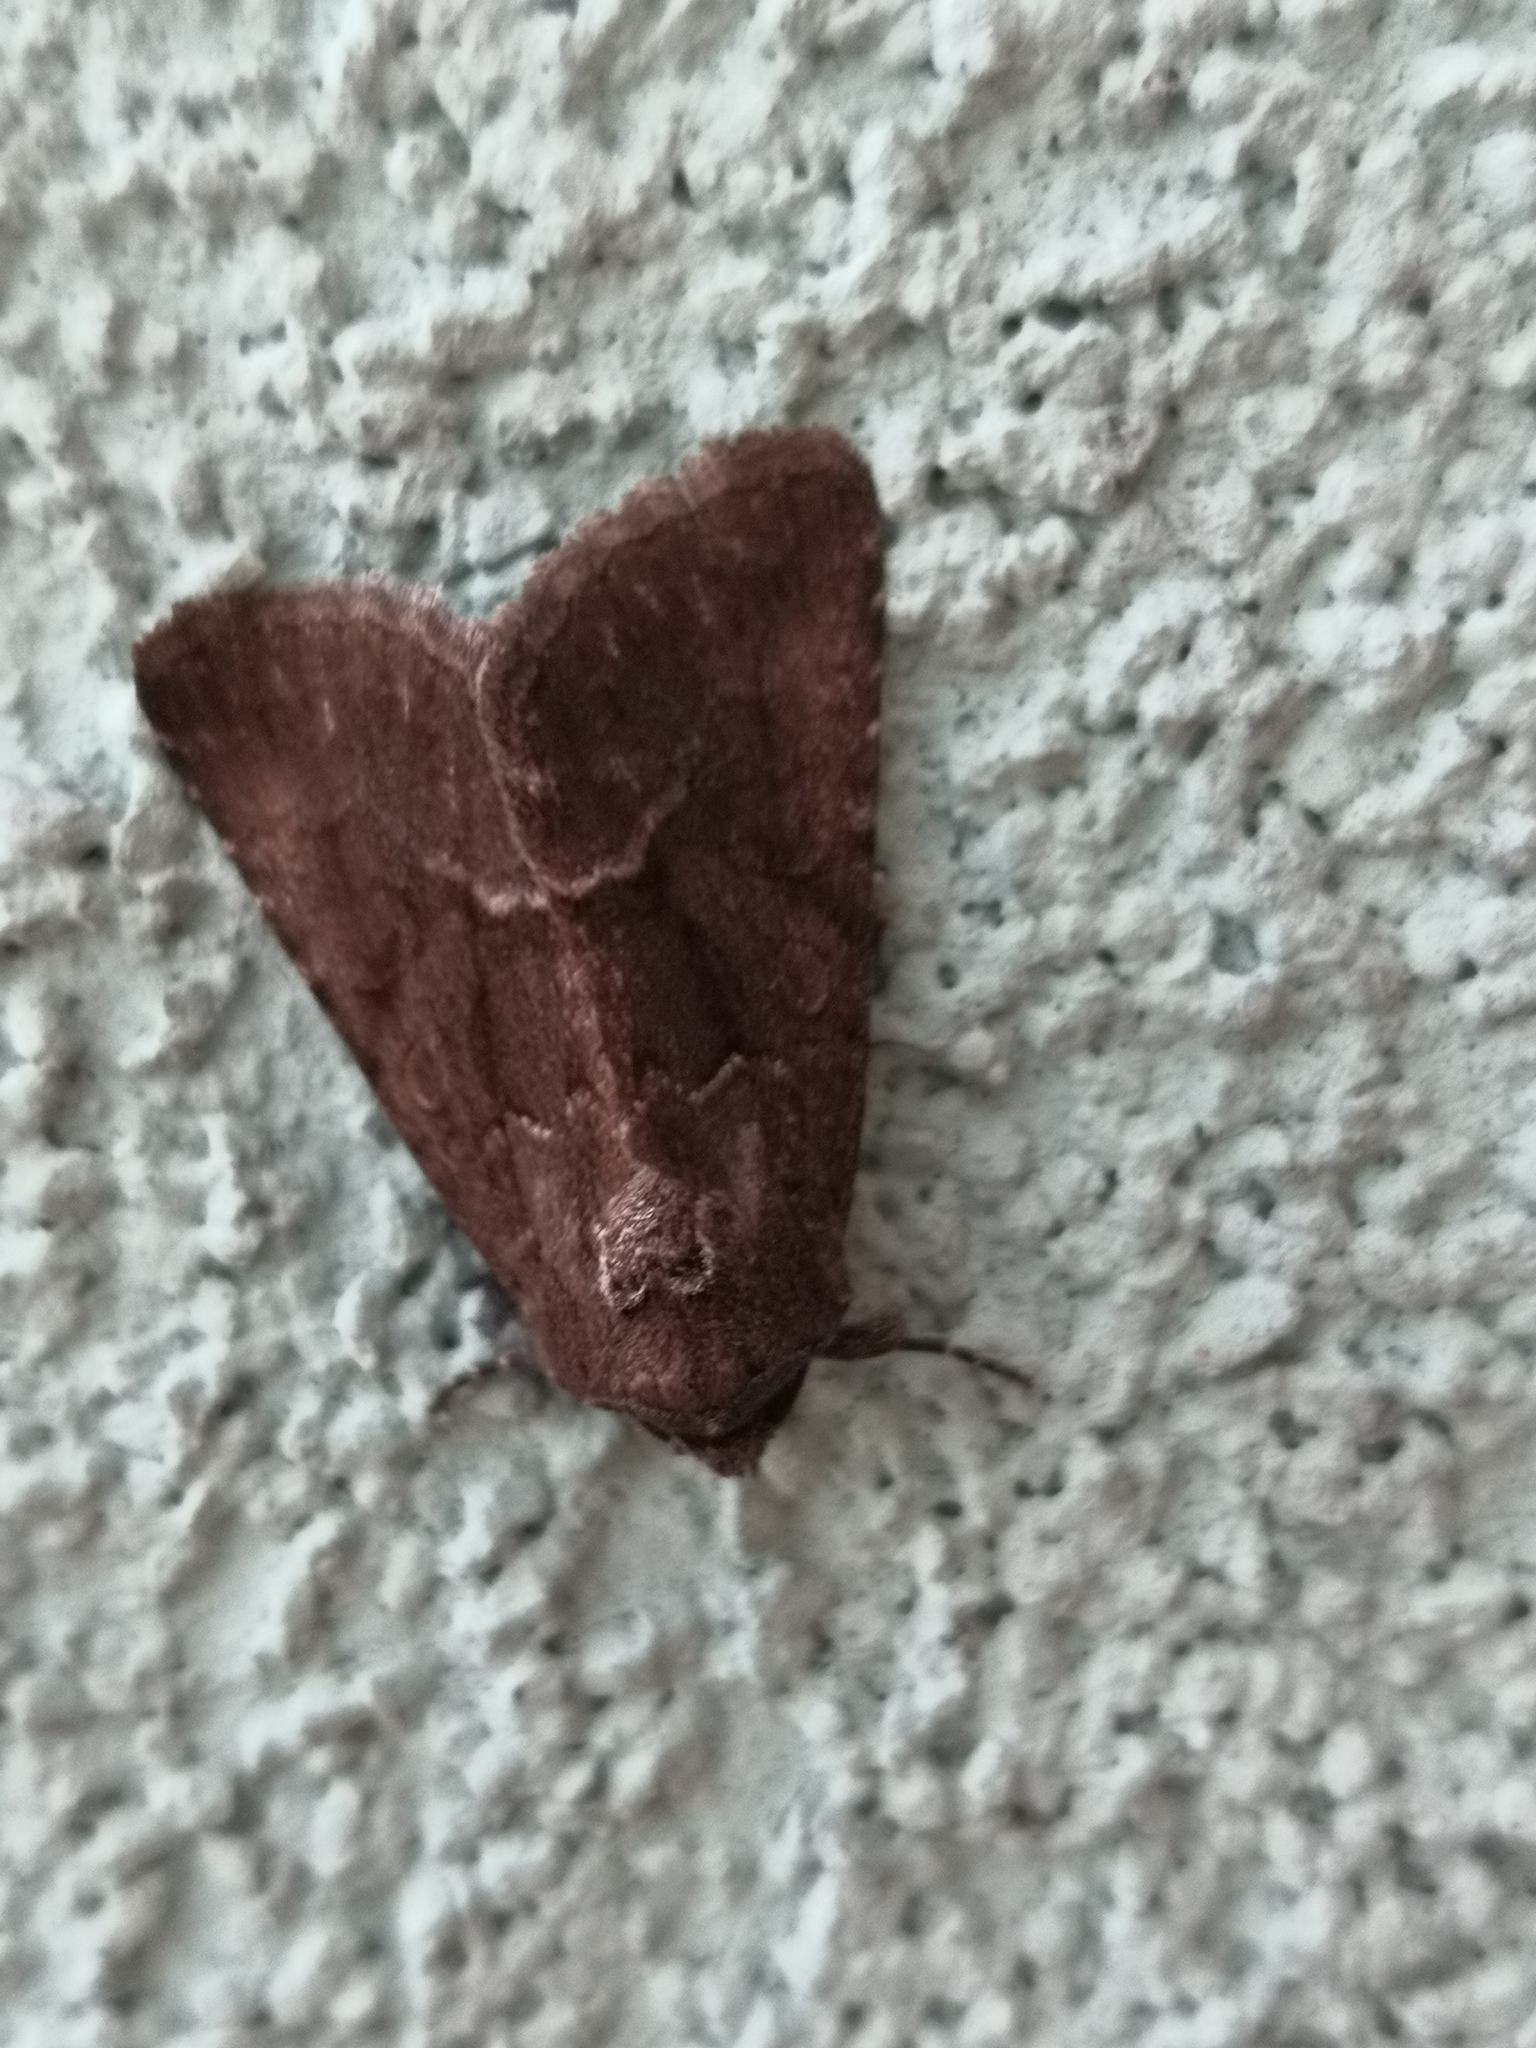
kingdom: Animalia
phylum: Arthropoda
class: Insecta
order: Lepidoptera
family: Noctuidae
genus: Thalpophila
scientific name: Thalpophila matura
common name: Straw underwing
